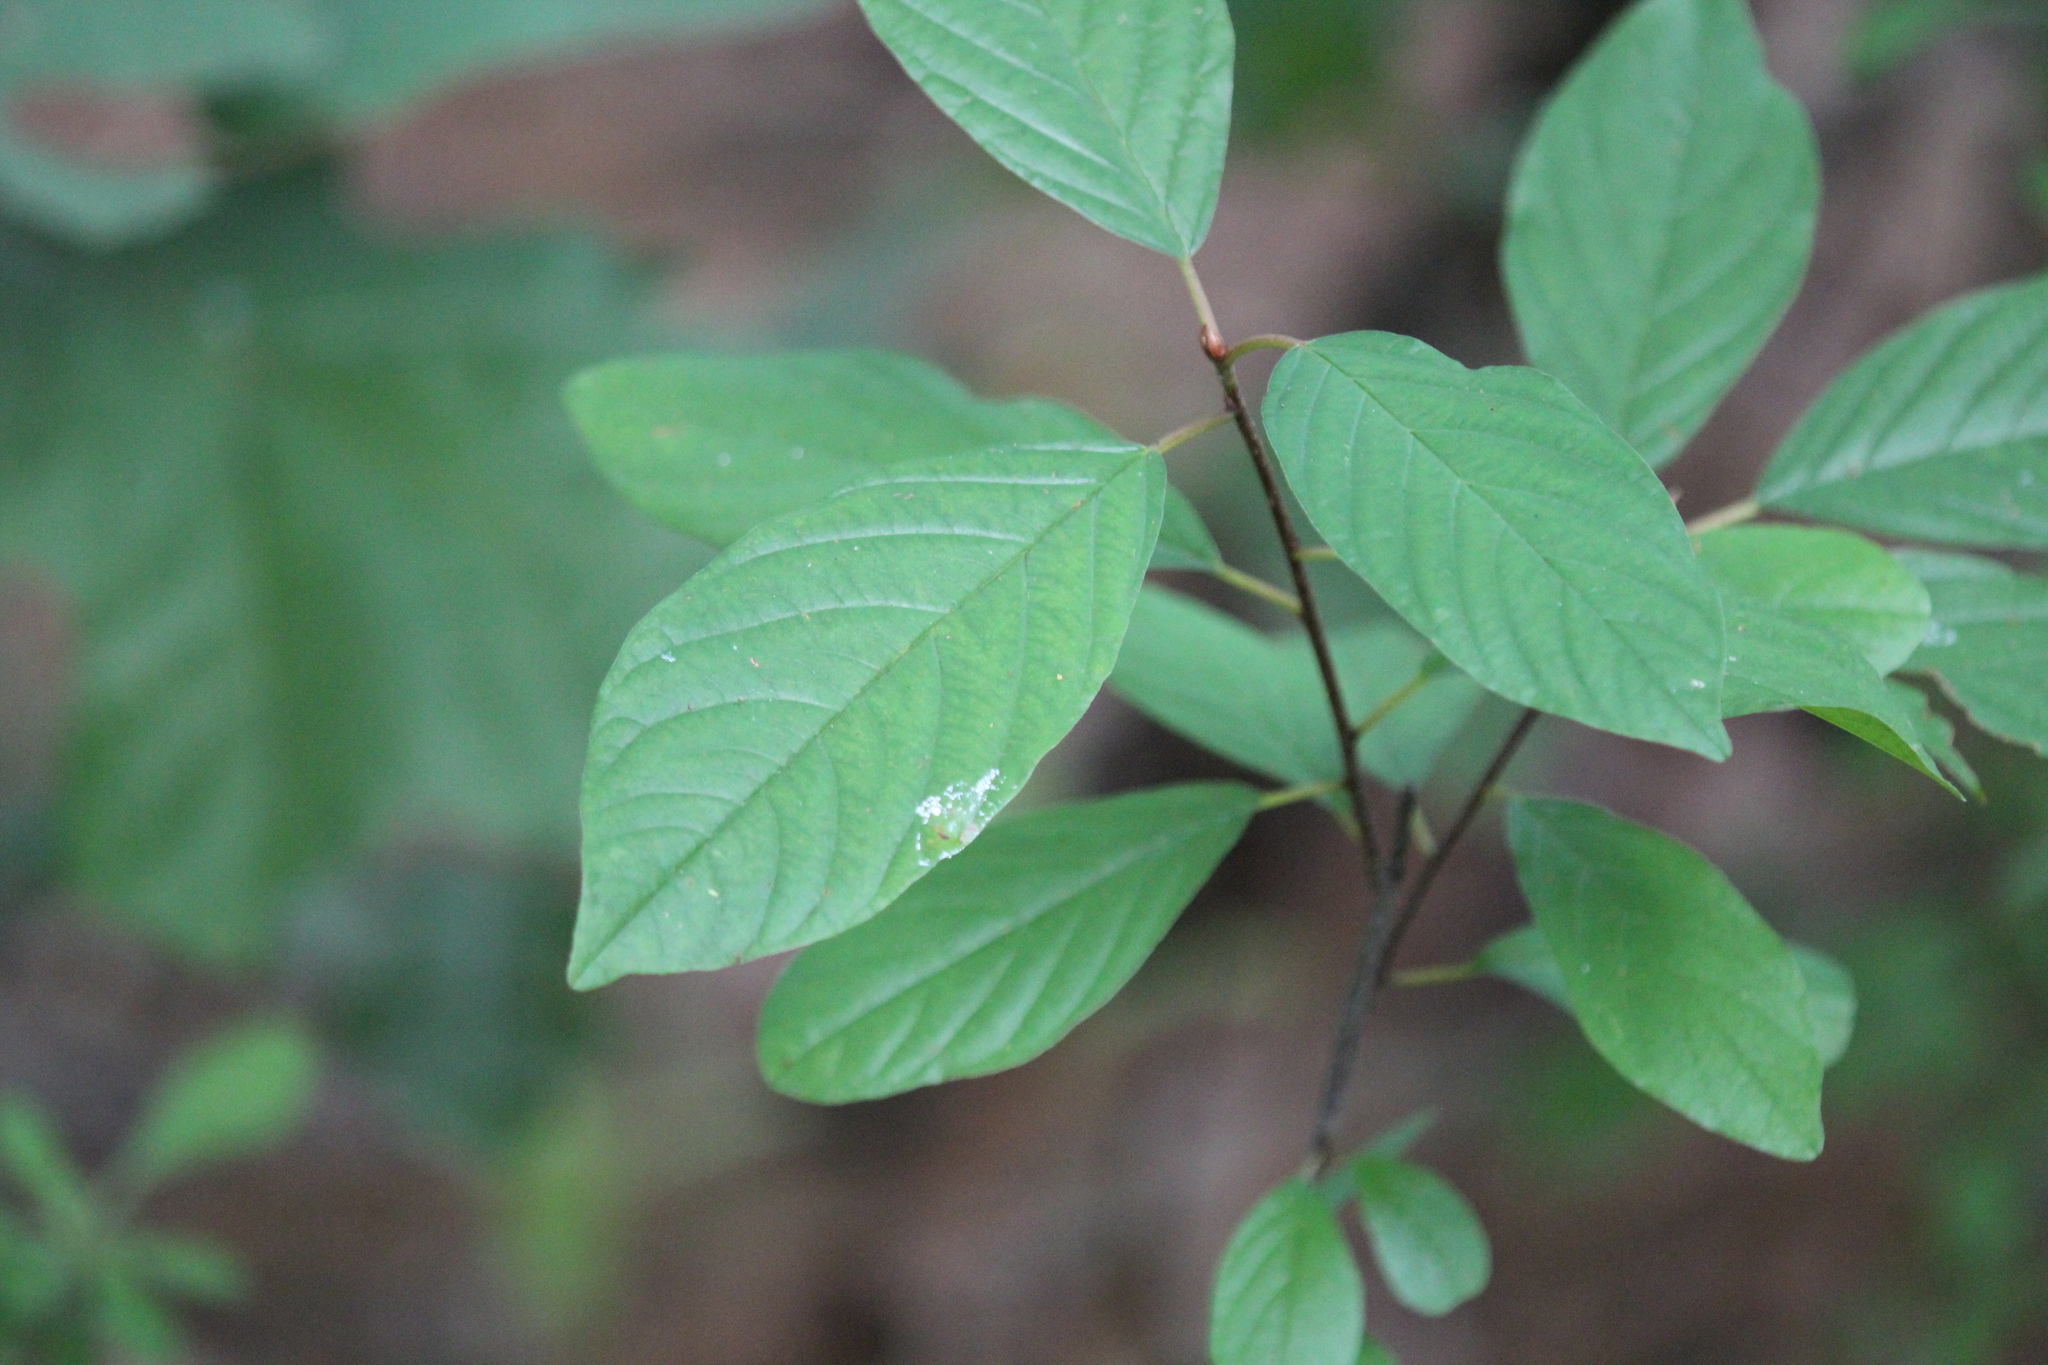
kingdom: Plantae
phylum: Tracheophyta
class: Magnoliopsida
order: Rosales
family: Rhamnaceae
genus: Frangula
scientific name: Frangula alnus
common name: Alder buckthorn
